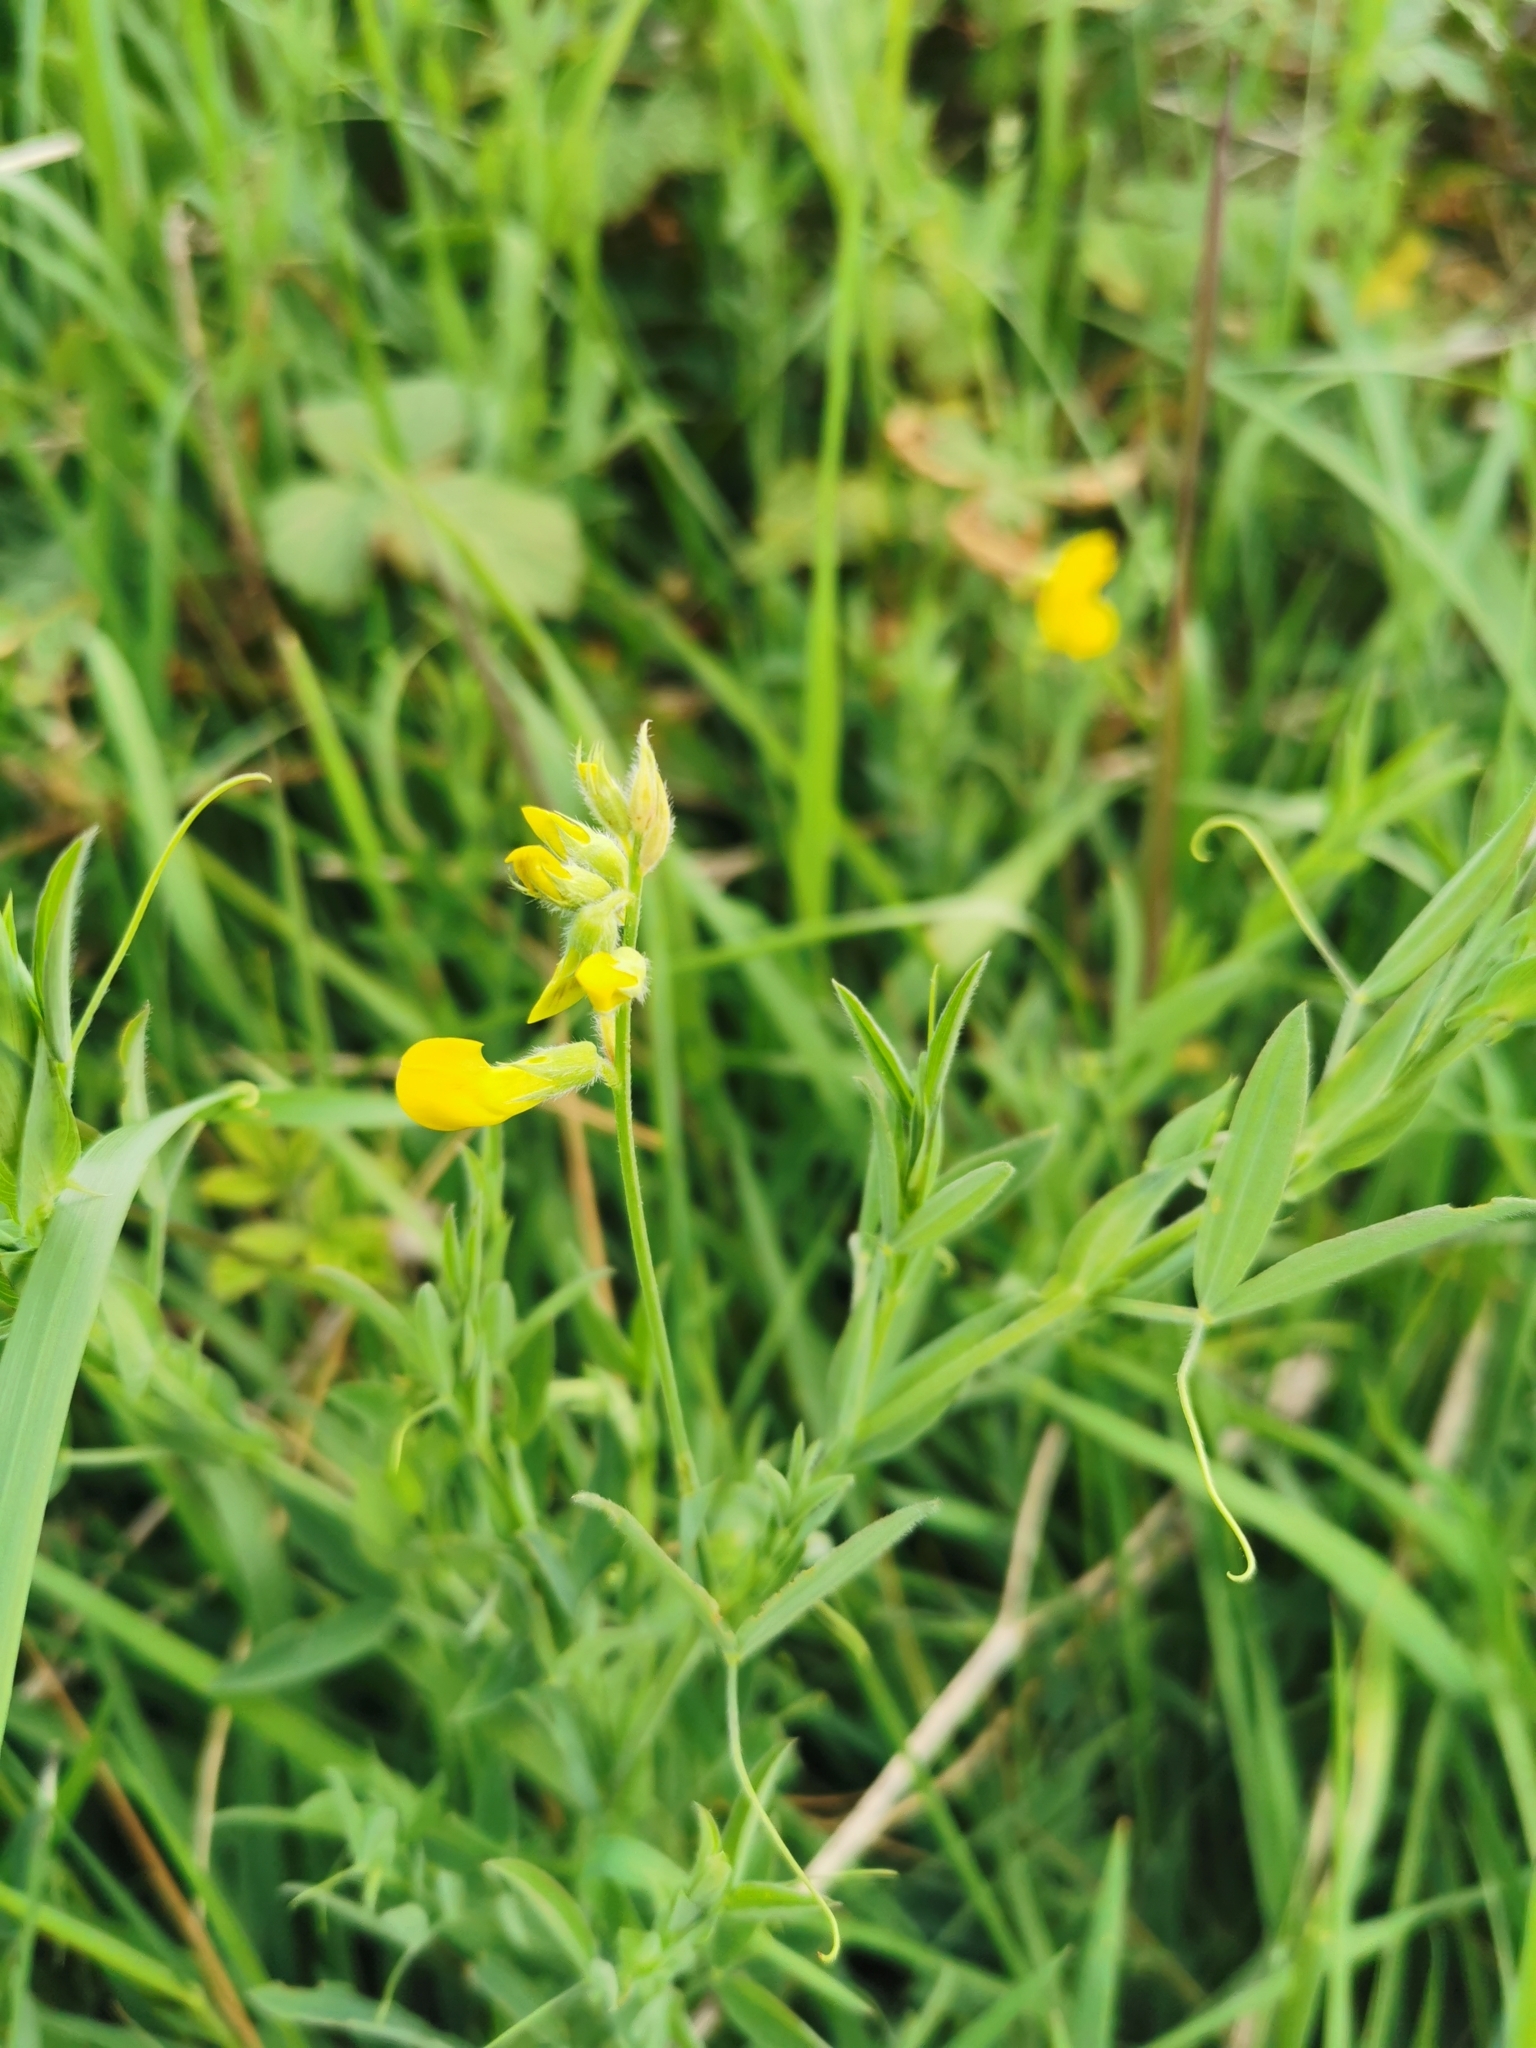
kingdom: Plantae
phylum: Tracheophyta
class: Magnoliopsida
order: Fabales
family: Fabaceae
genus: Lathyrus
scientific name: Lathyrus pratensis
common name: Meadow vetchling
